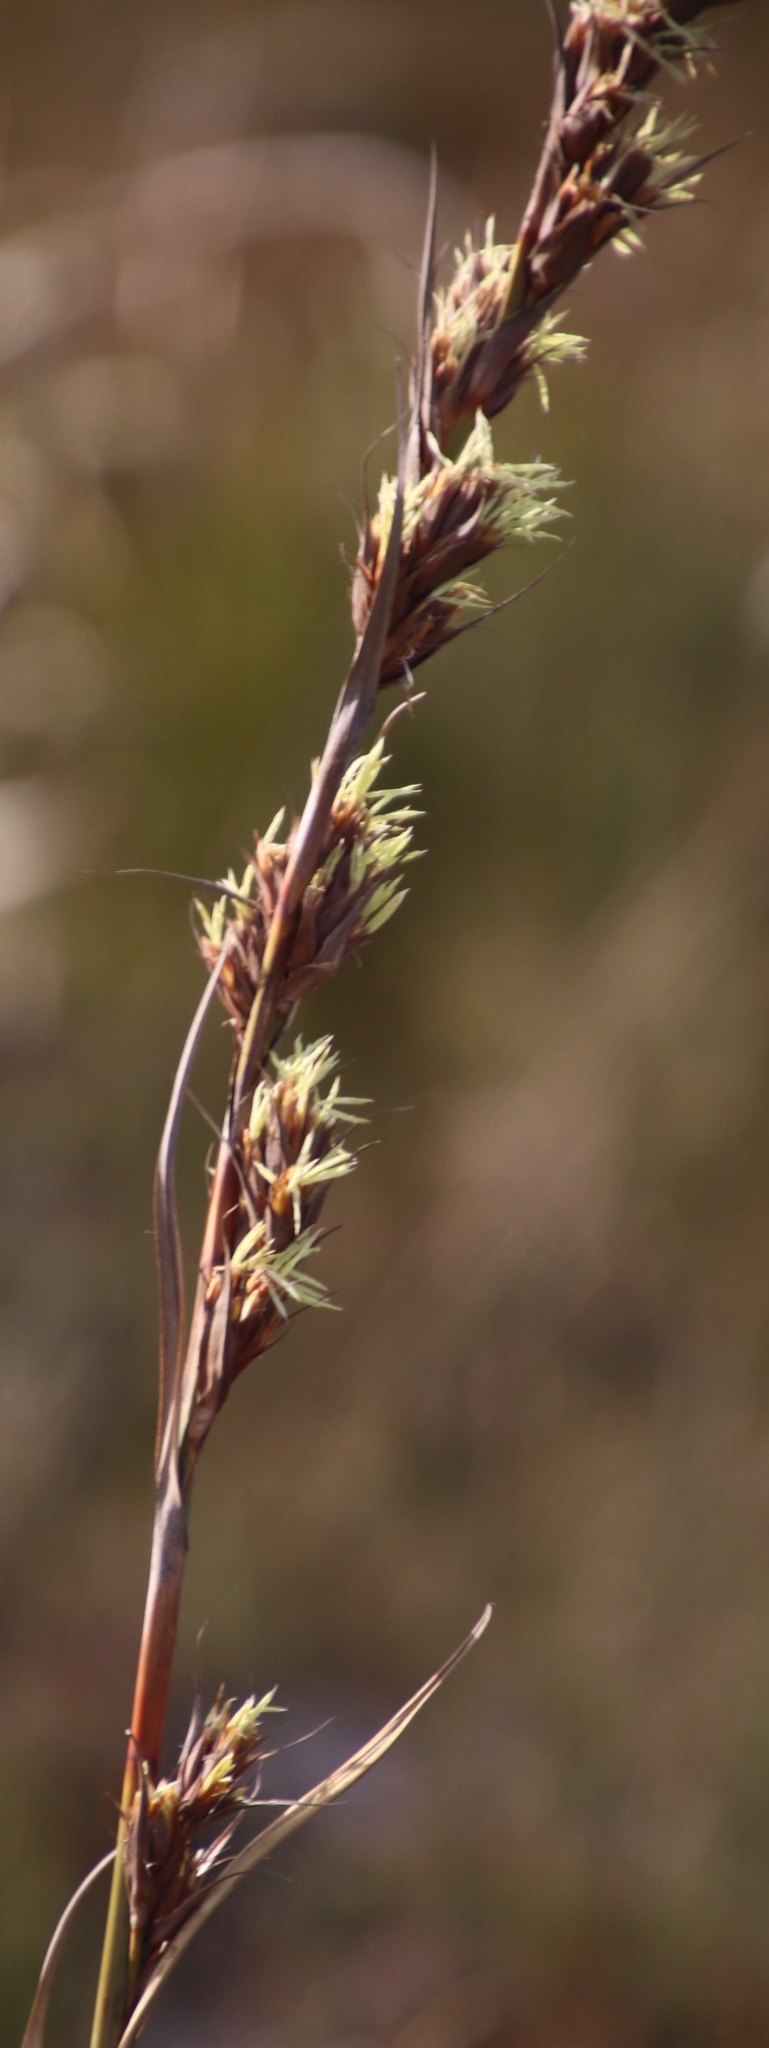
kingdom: Plantae
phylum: Tracheophyta
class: Liliopsida
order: Poales
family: Cyperaceae
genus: Tetraria
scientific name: Tetraria thermalis
